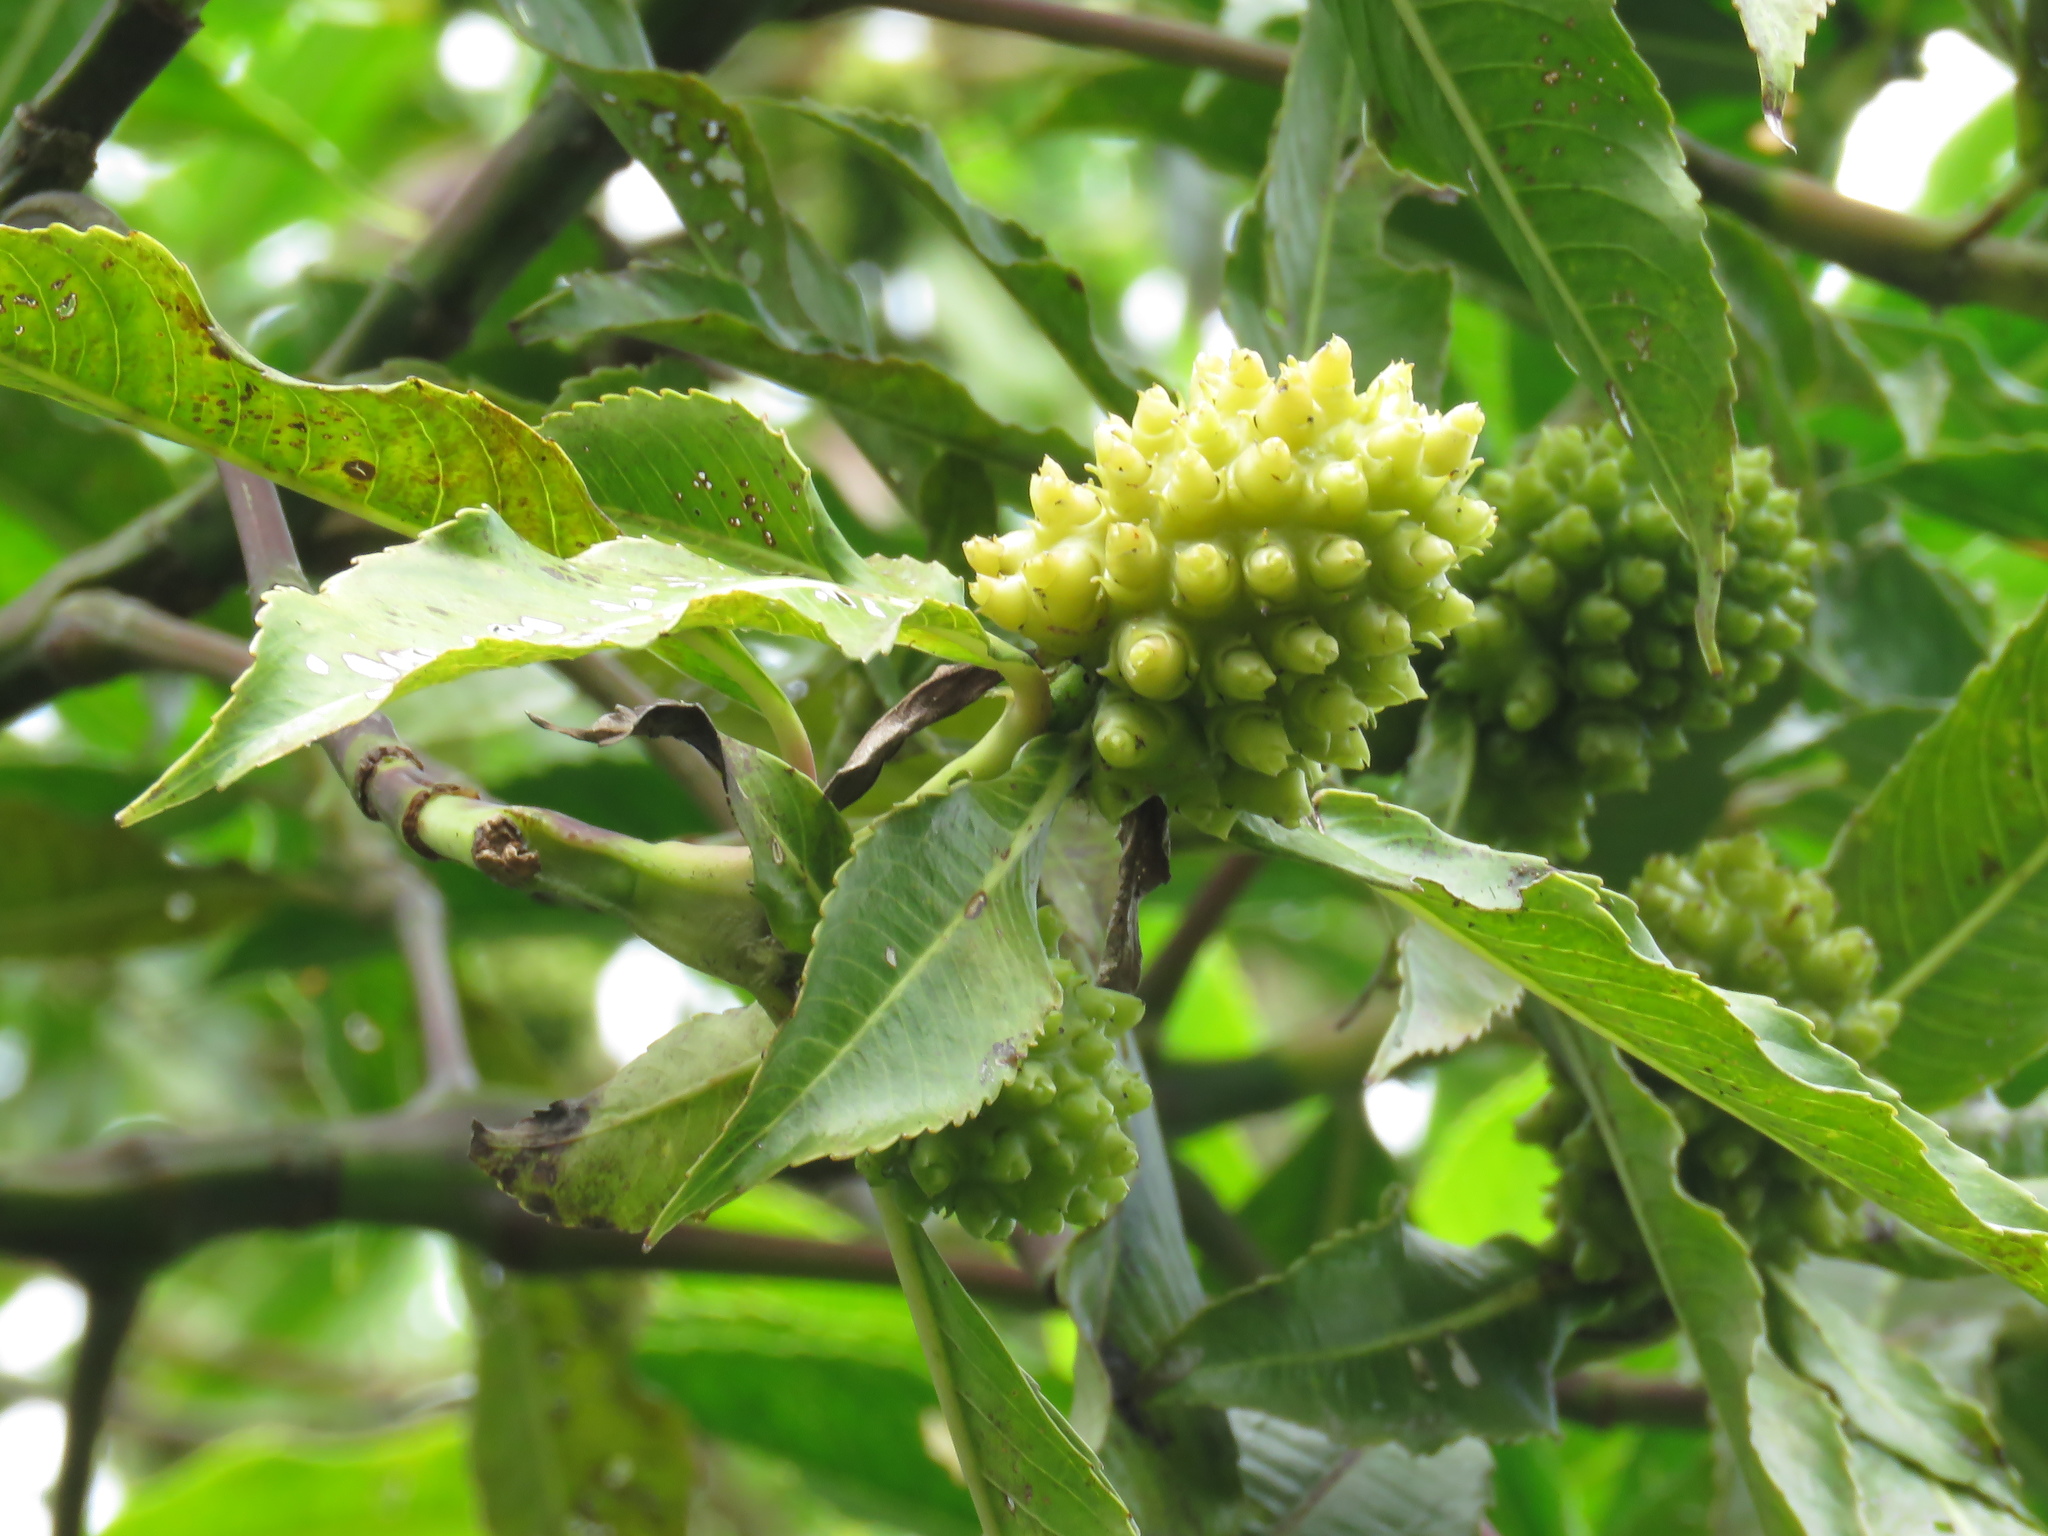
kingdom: Plantae
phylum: Tracheophyta
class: Magnoliopsida
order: Chloranthales
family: Chloranthaceae
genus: Hedyosmum
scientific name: Hedyosmum mexicanum
